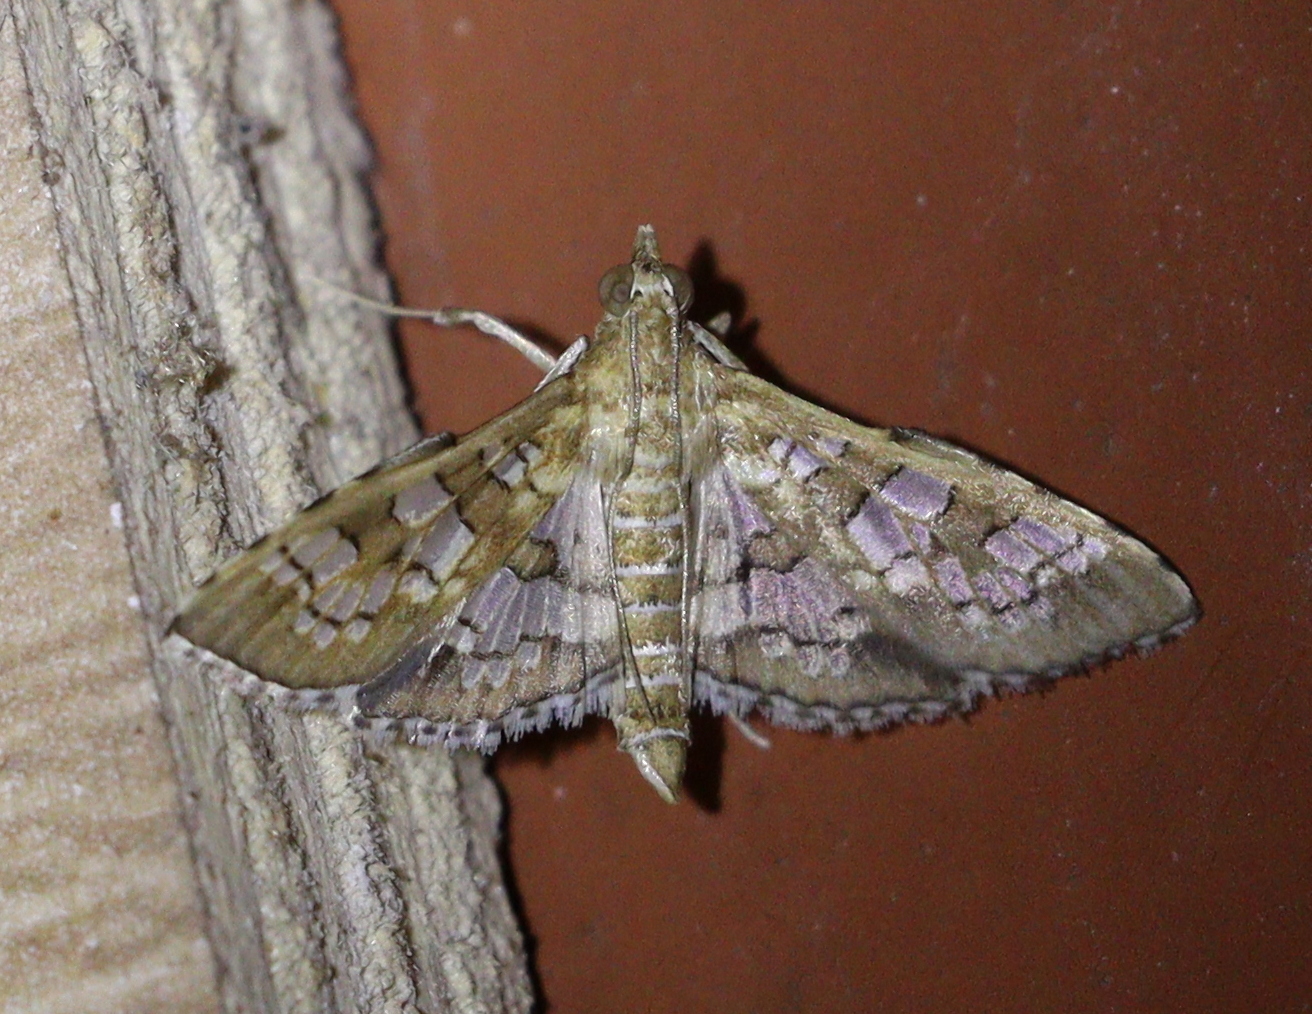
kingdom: Animalia
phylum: Arthropoda
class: Insecta
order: Lepidoptera
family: Crambidae
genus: Sameodes
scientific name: Sameodes cancellalis
